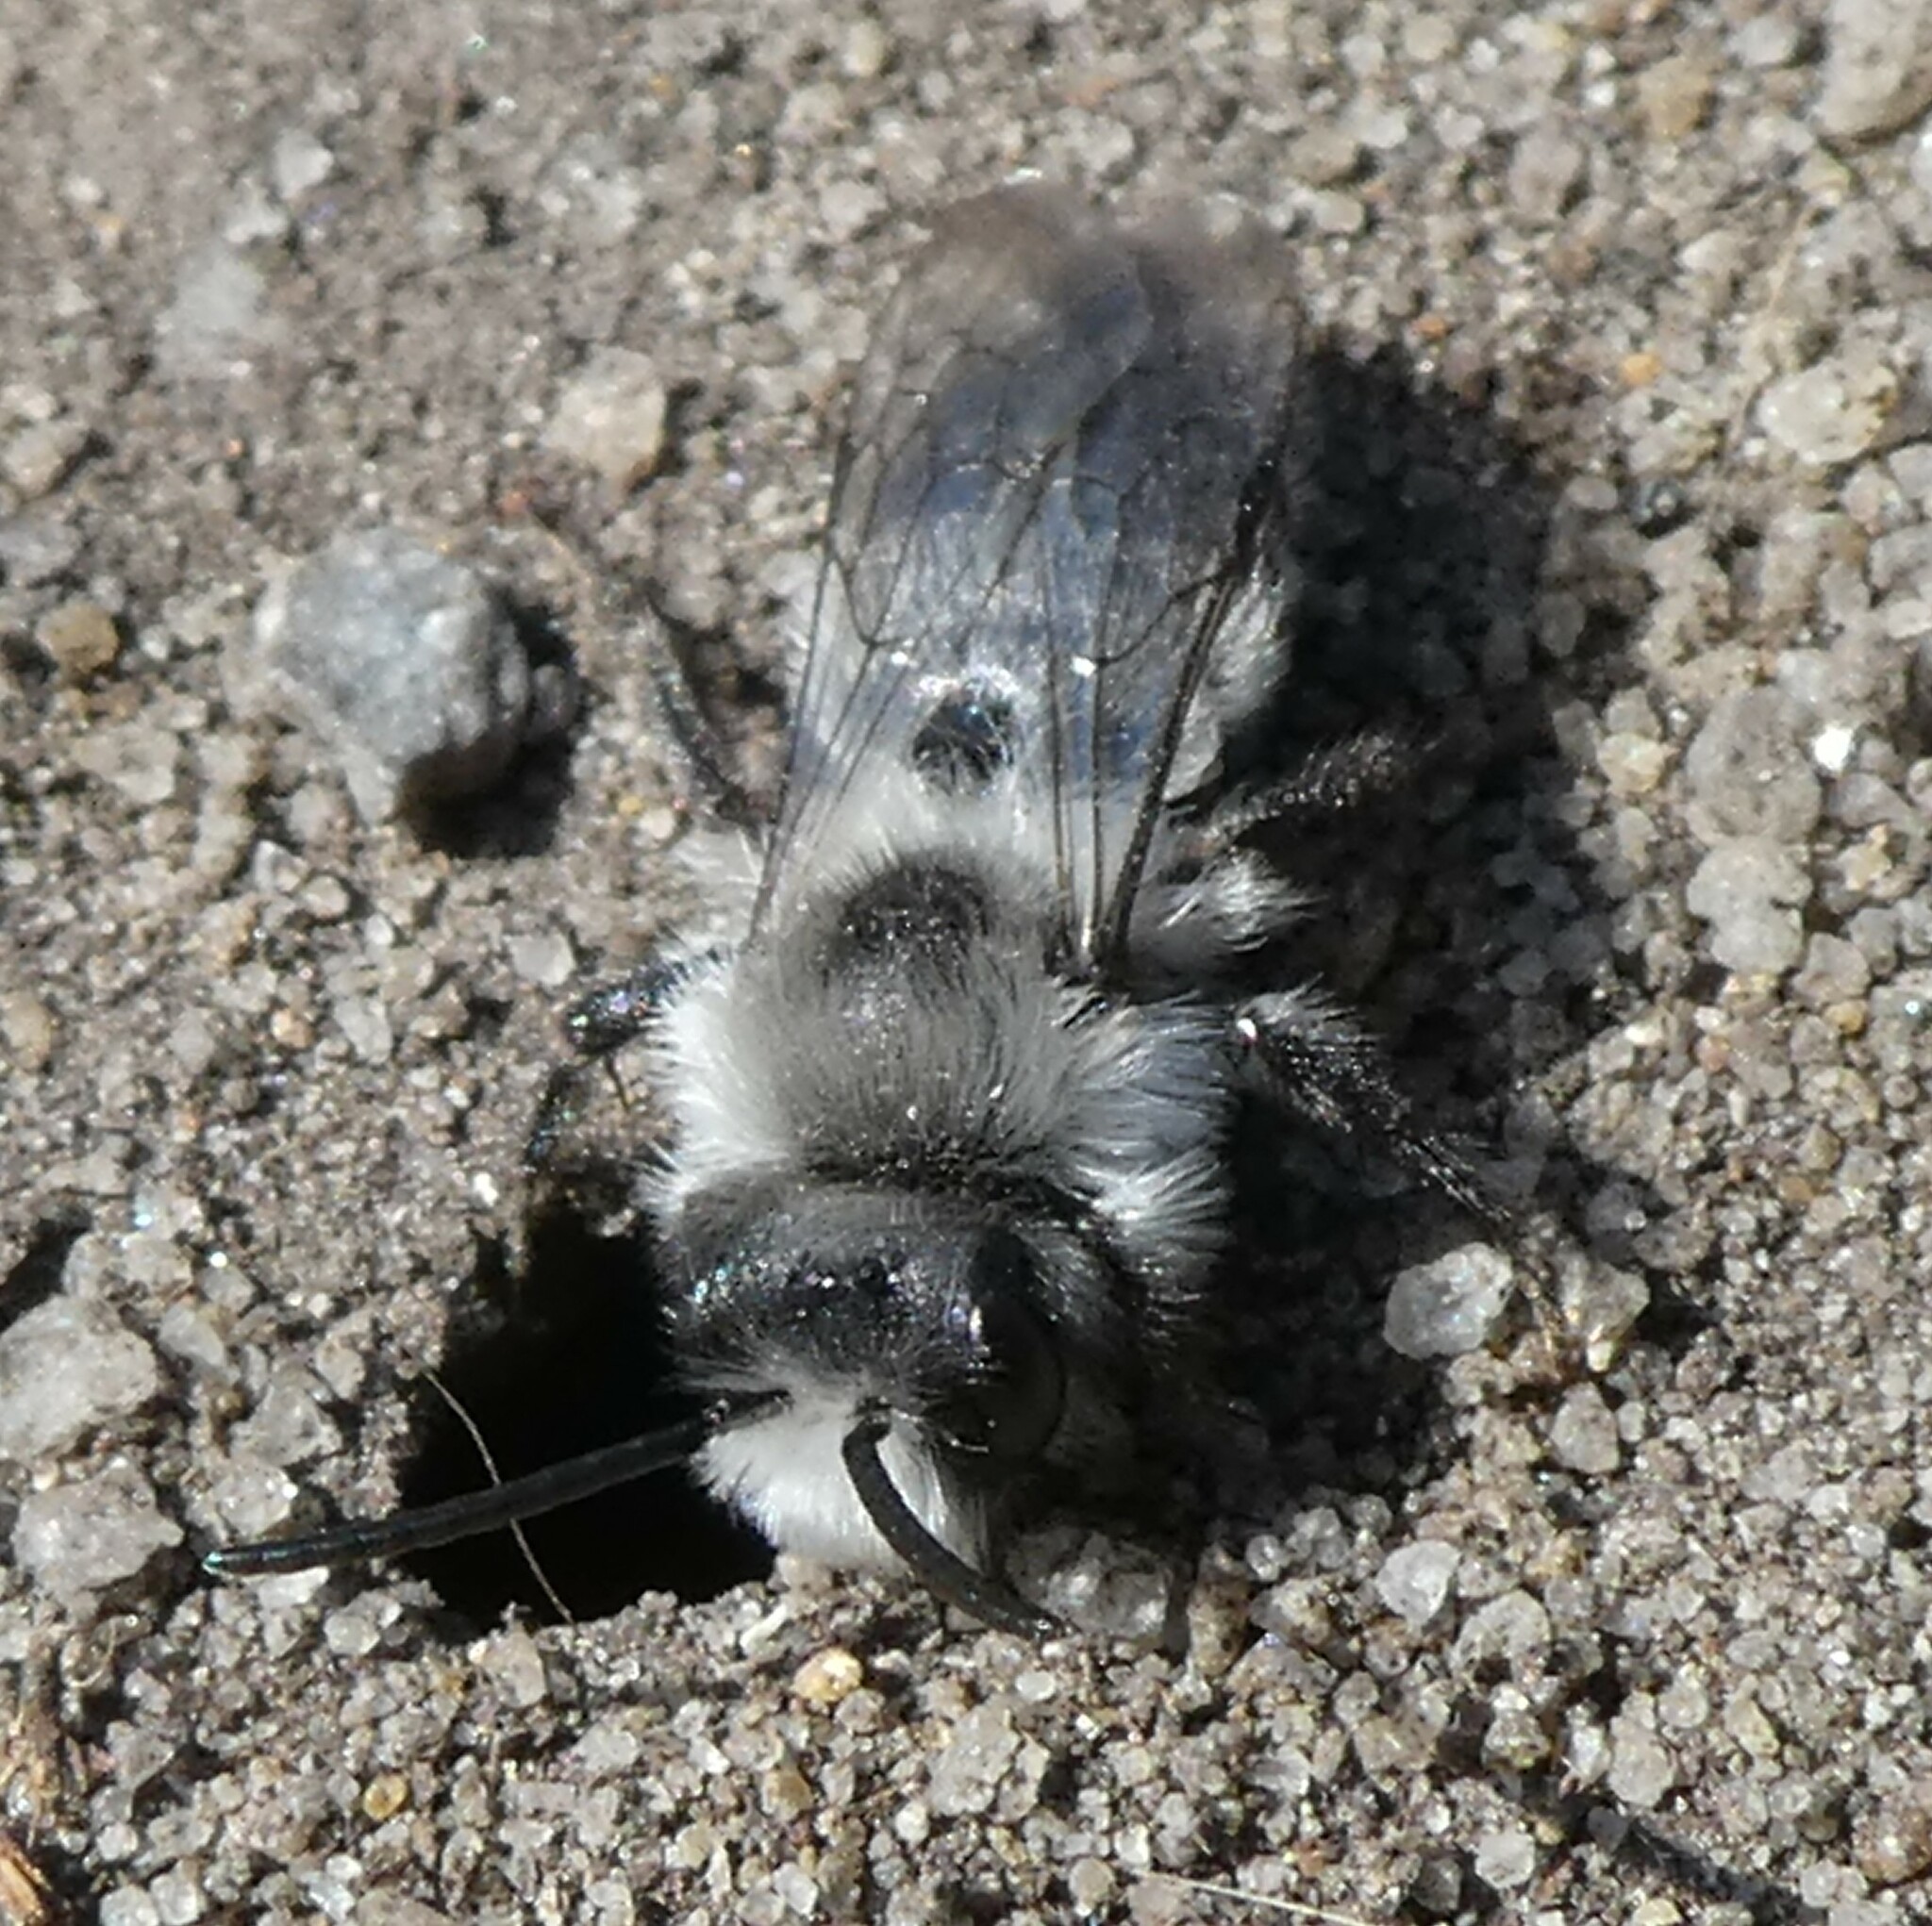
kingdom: Animalia
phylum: Arthropoda
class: Insecta
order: Hymenoptera
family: Andrenidae
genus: Andrena
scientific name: Andrena cineraria
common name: Ashy mining bee
